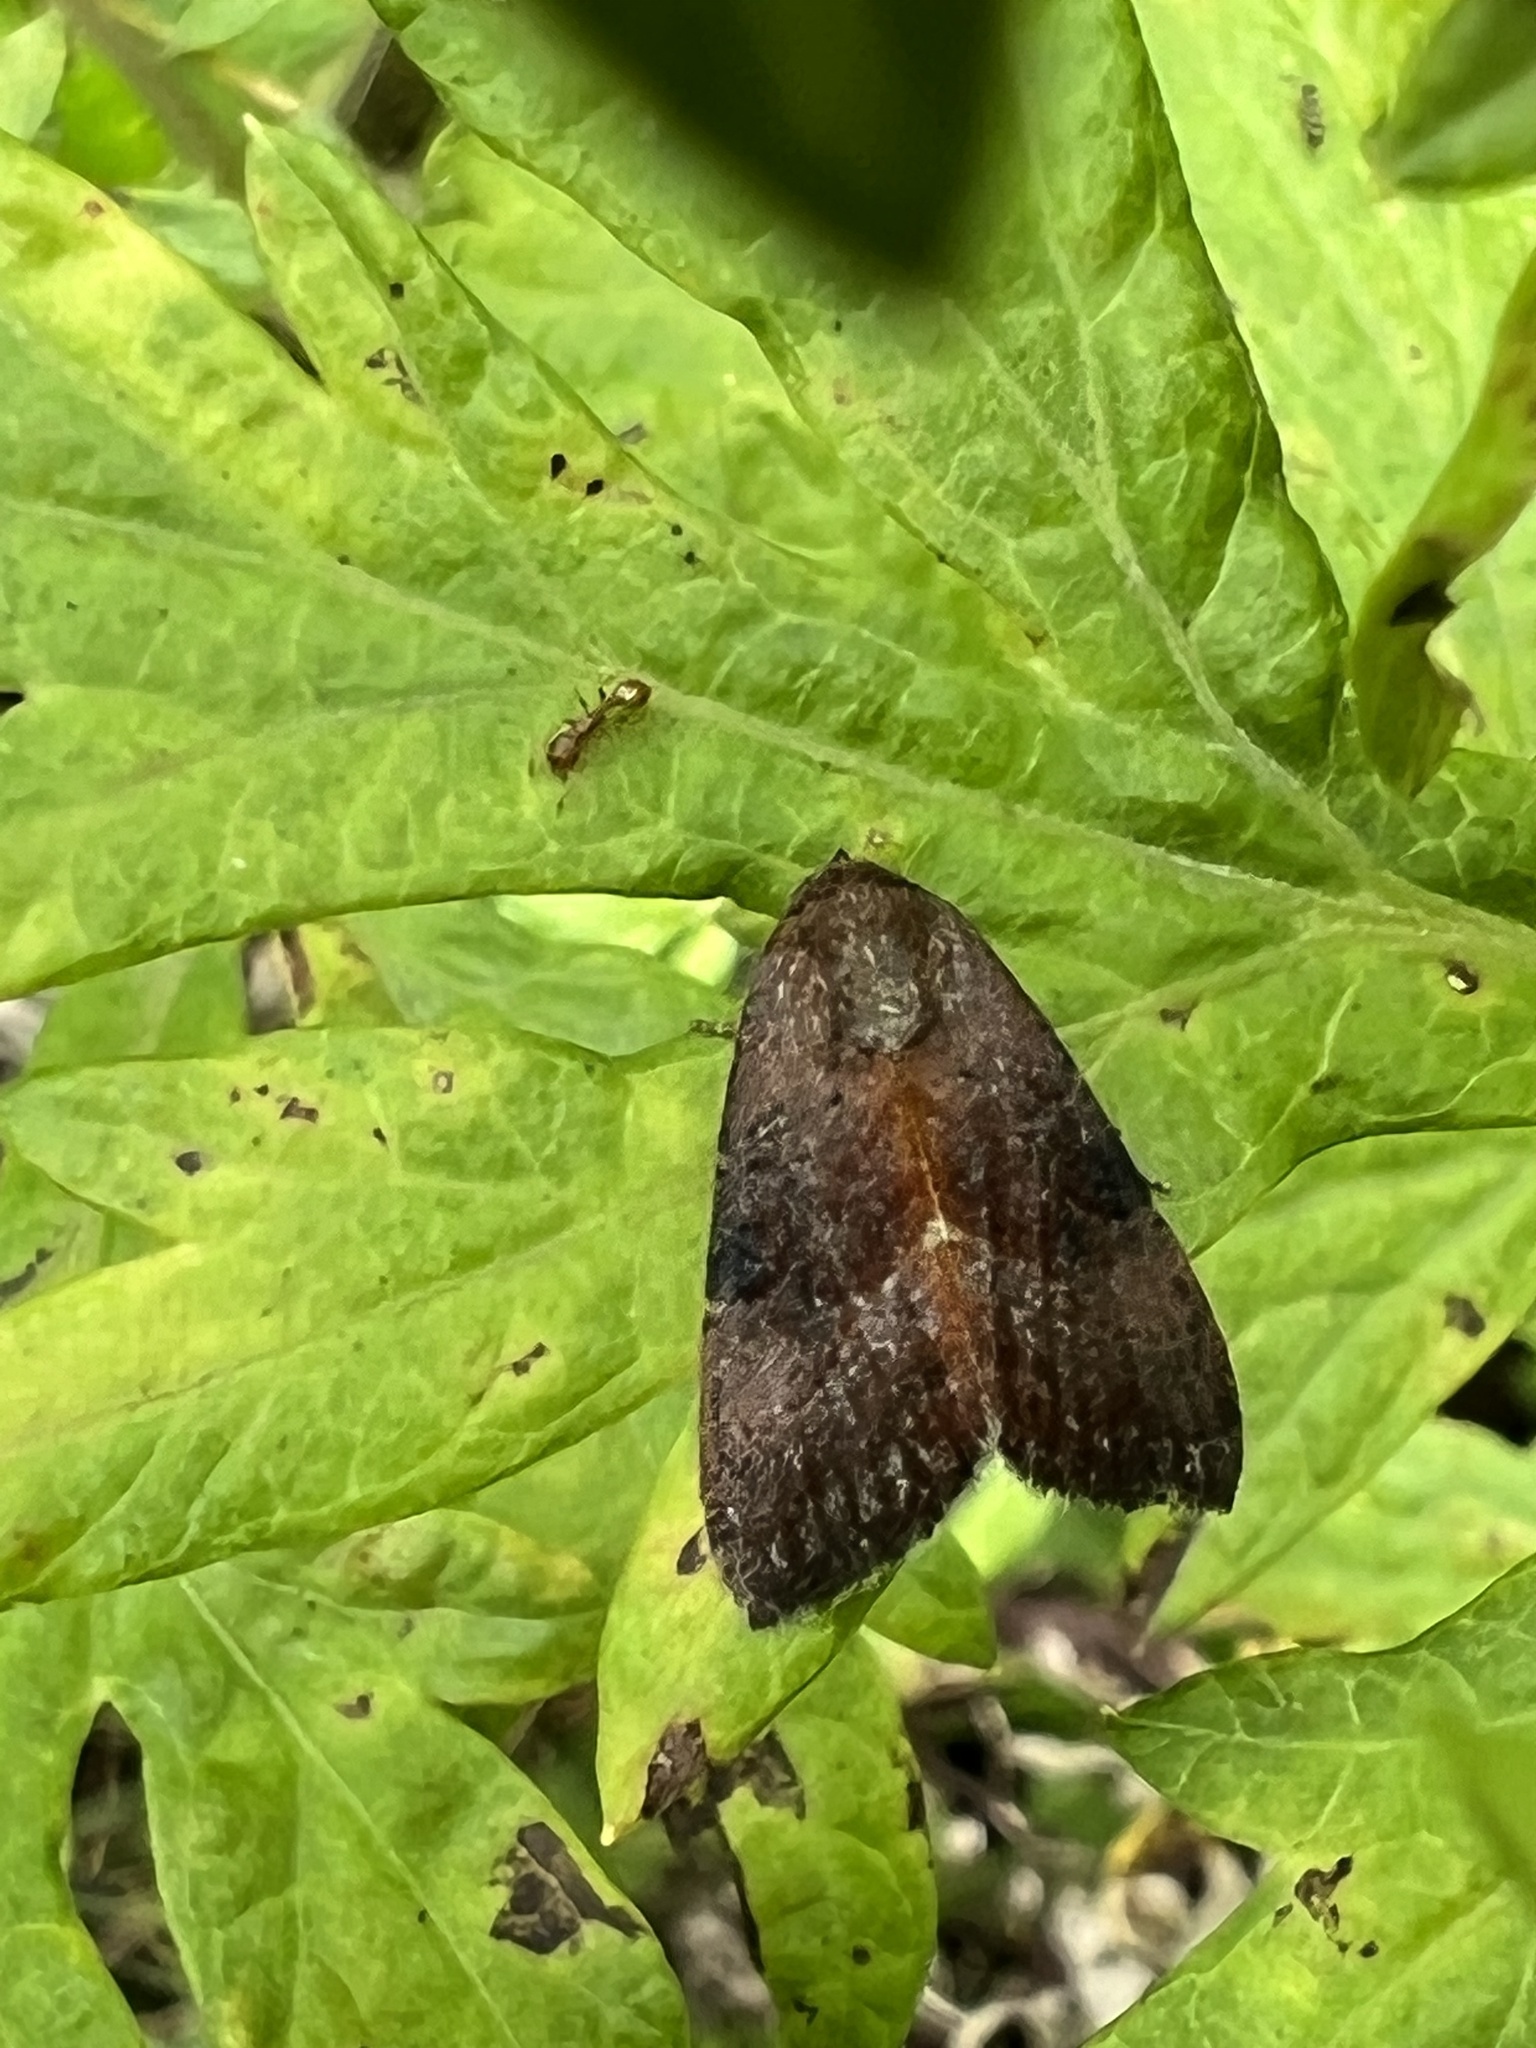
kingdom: Animalia
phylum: Arthropoda
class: Insecta
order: Lepidoptera
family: Noctuidae
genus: Galgula
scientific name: Galgula partita
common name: Wedgeling
